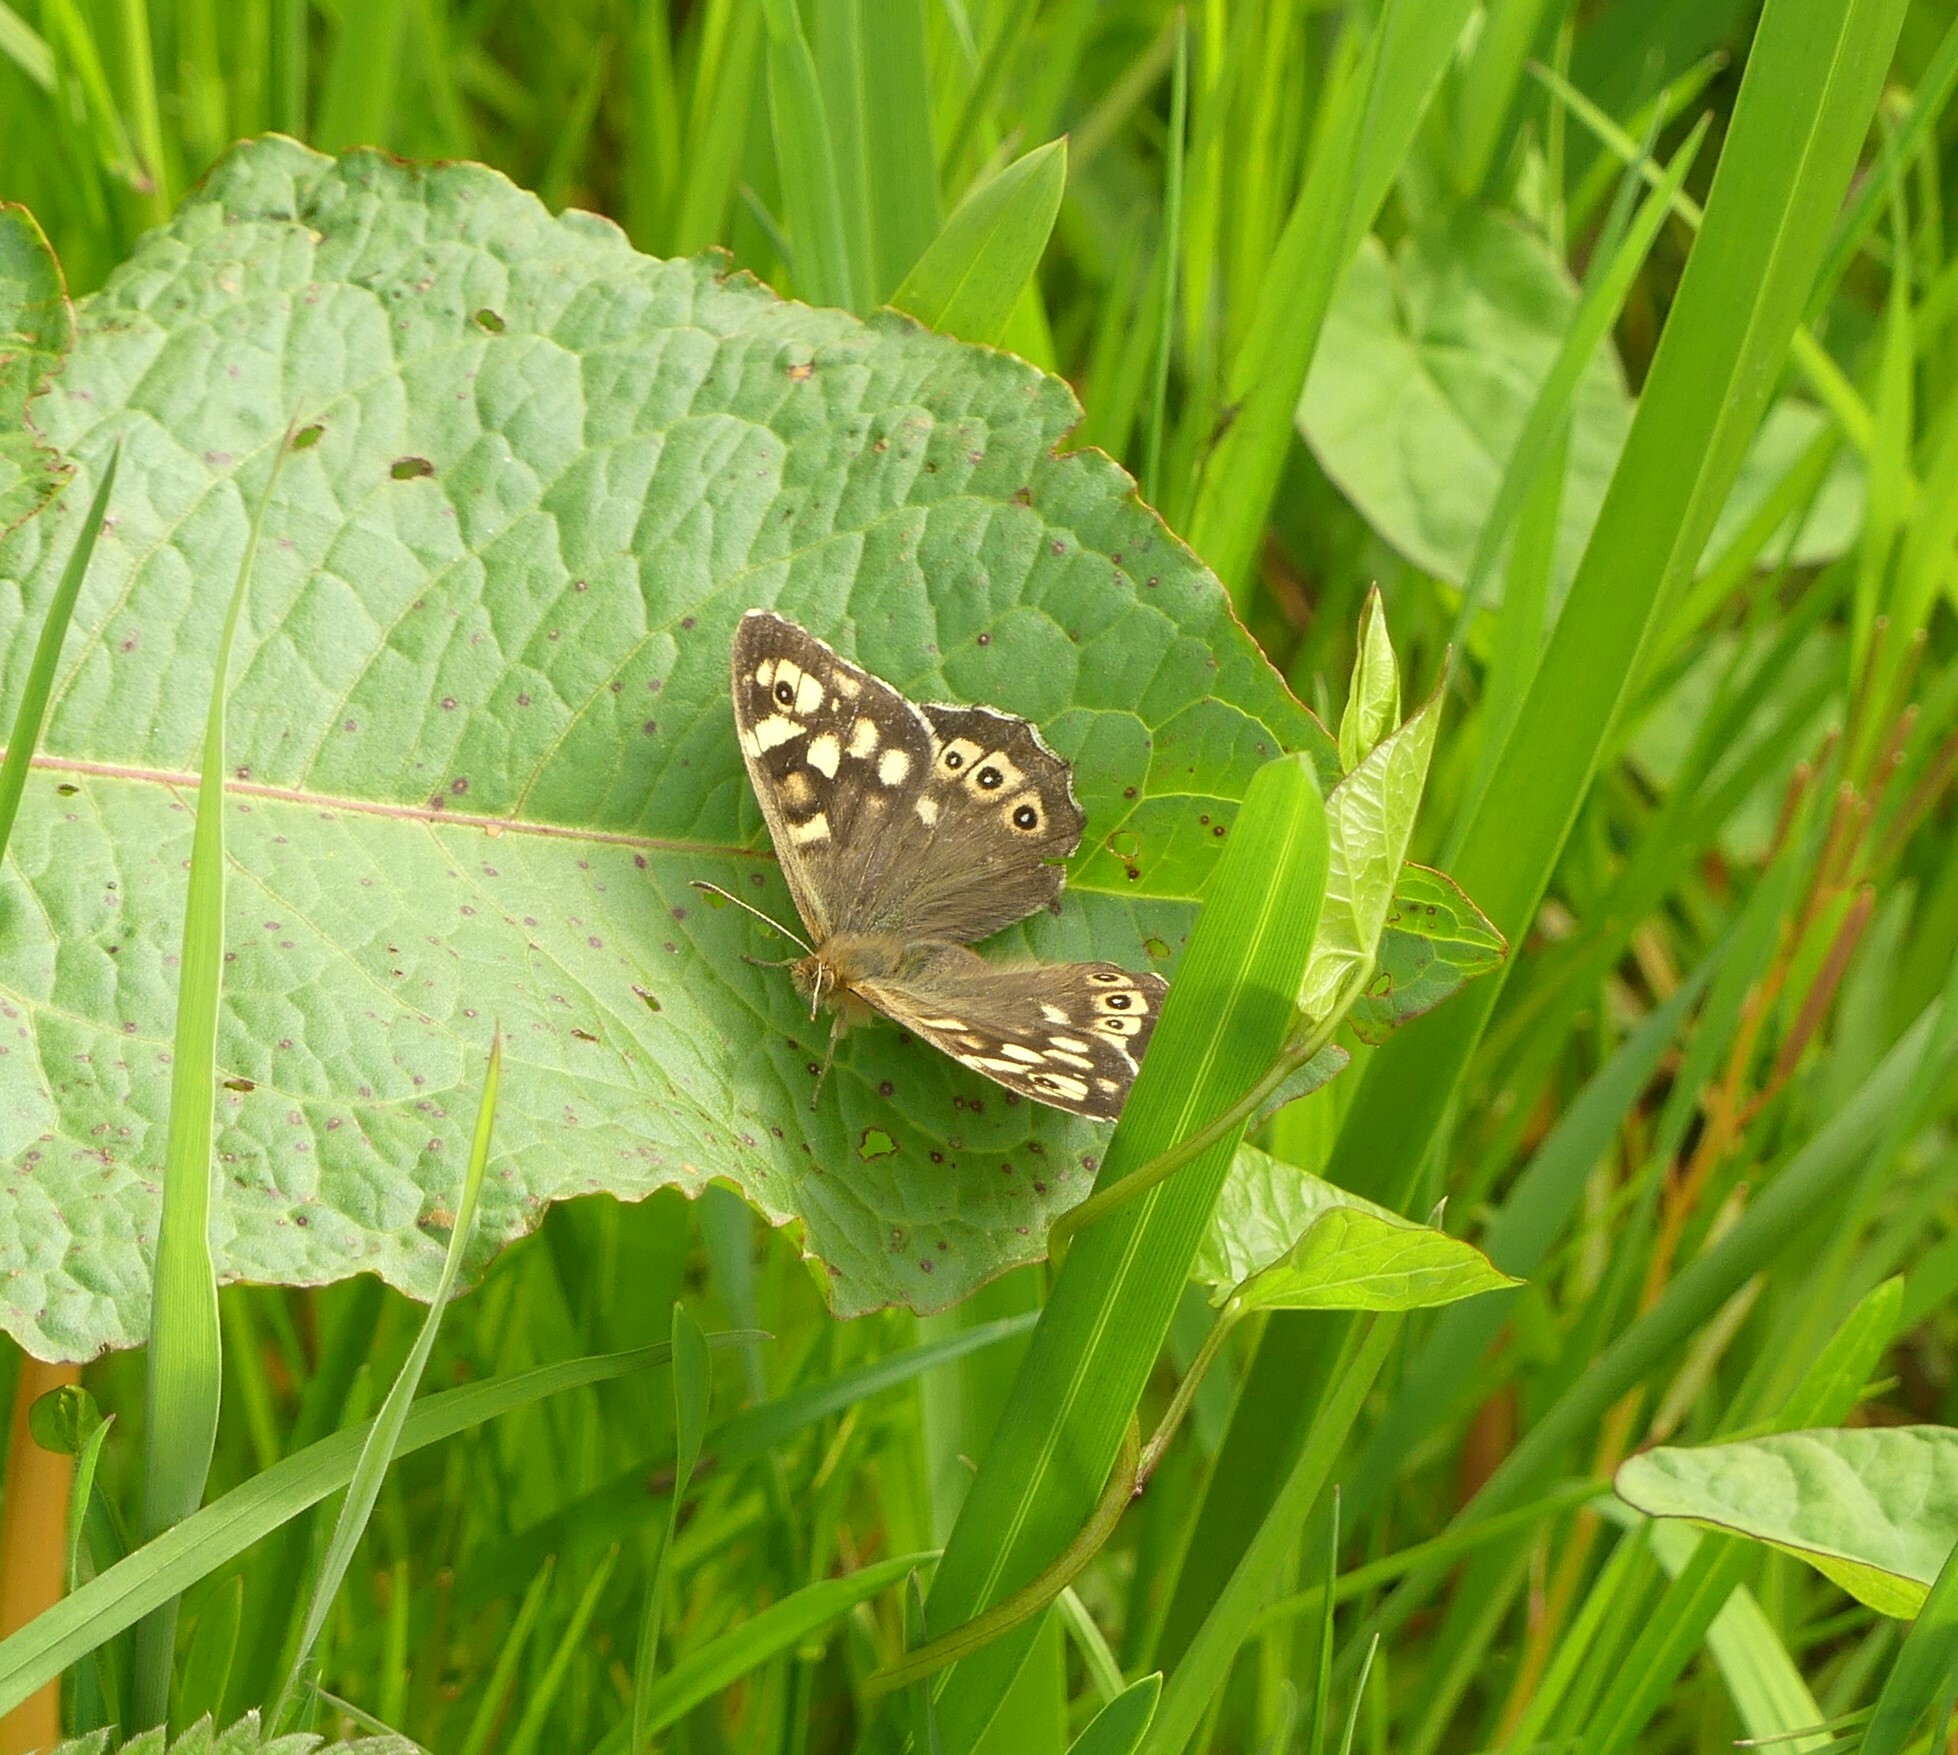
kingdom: Animalia
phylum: Arthropoda
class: Insecta
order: Lepidoptera
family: Nymphalidae
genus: Pararge
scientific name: Pararge aegeria
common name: Speckled wood
